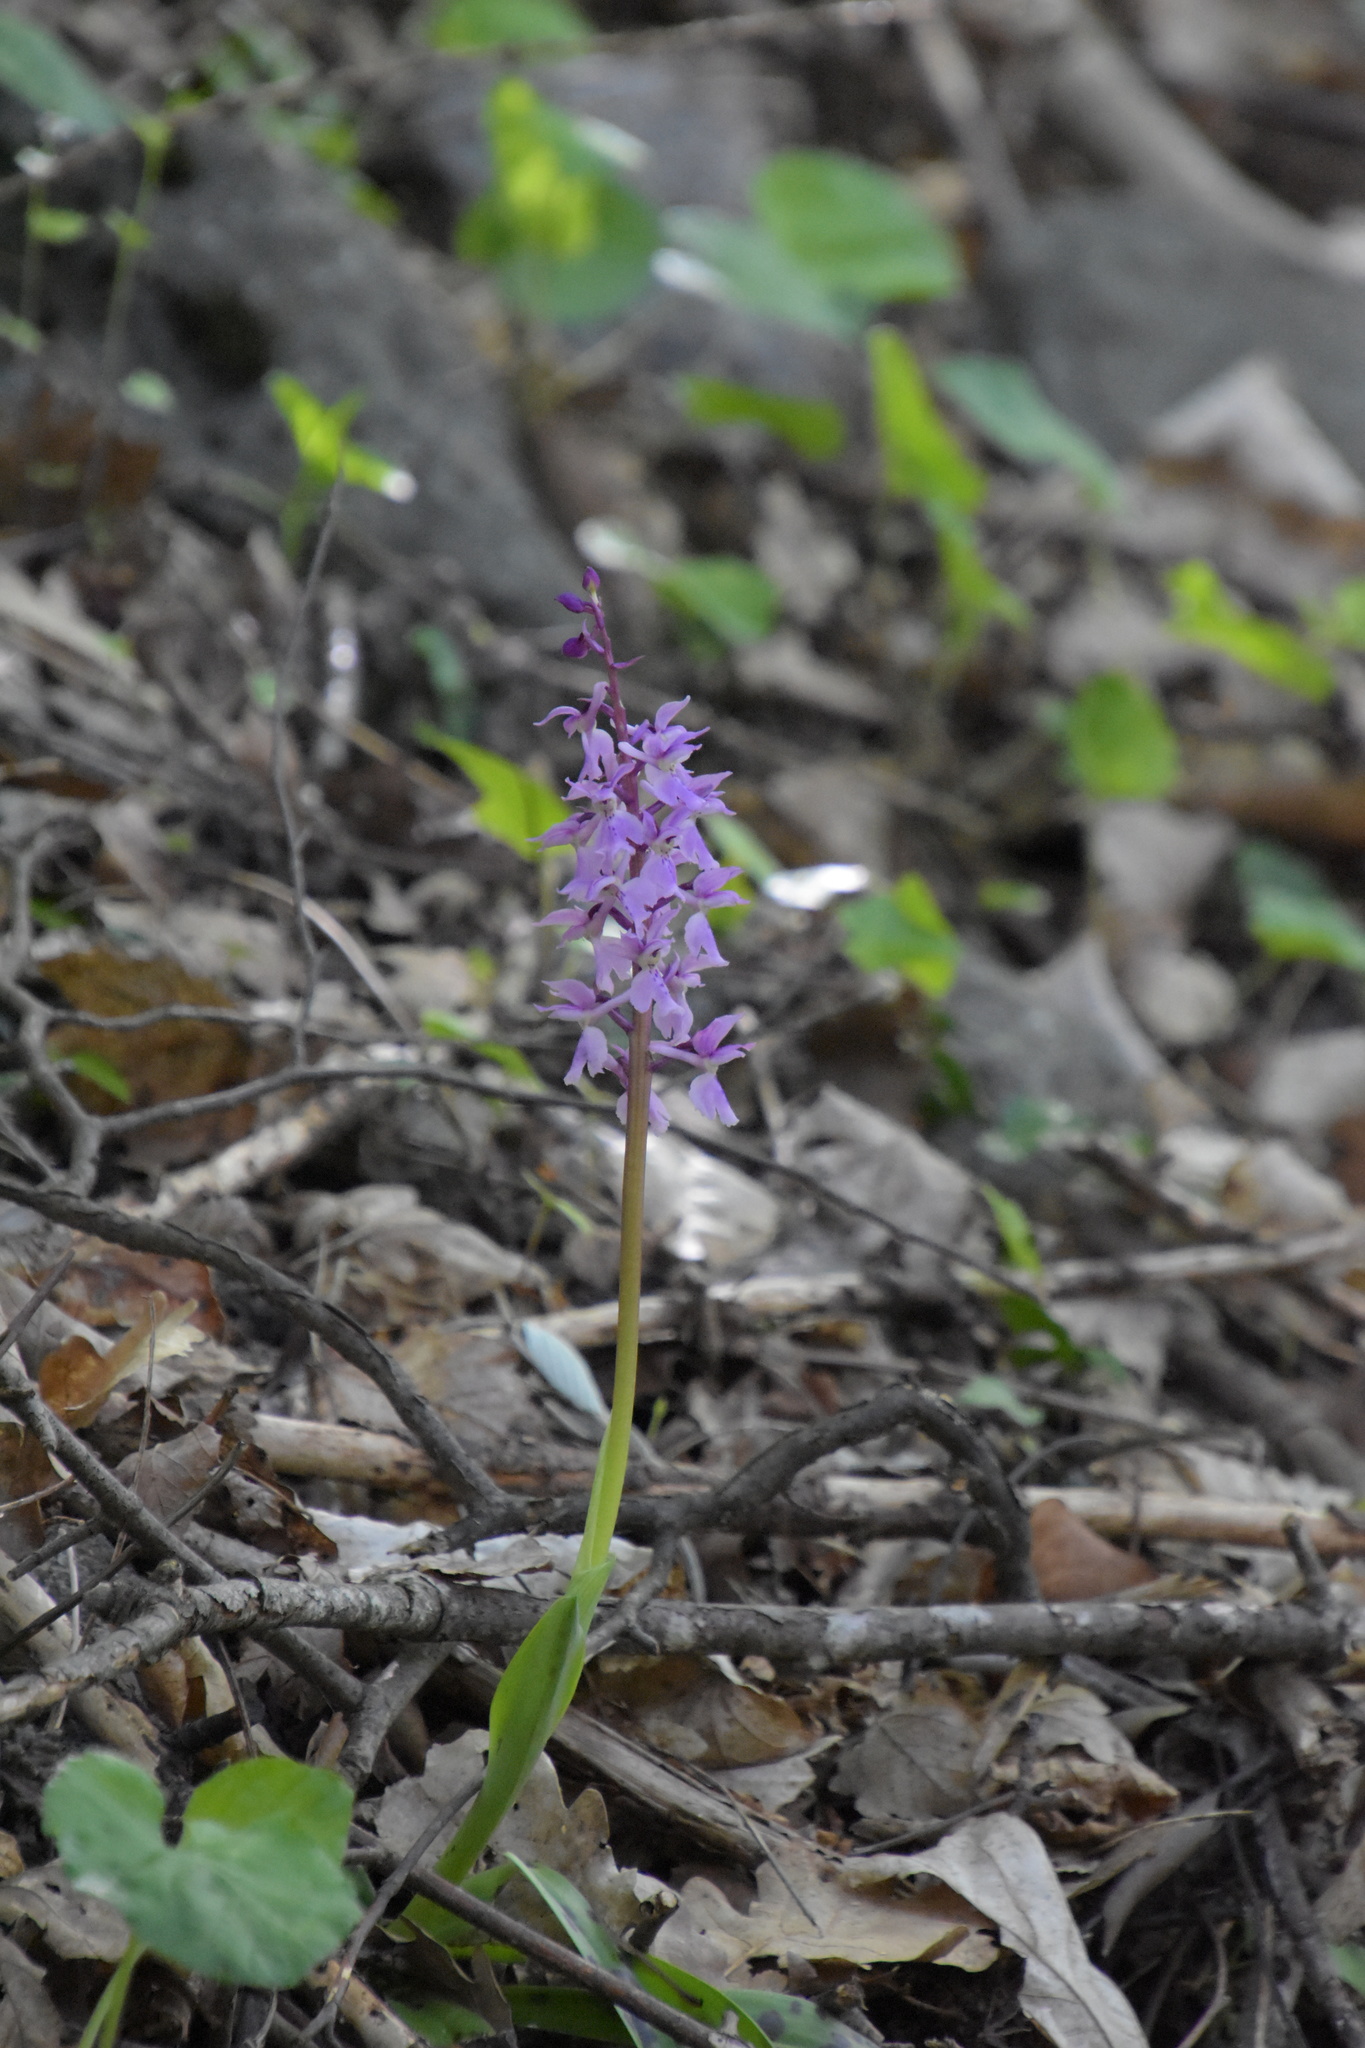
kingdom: Plantae
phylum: Tracheophyta
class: Liliopsida
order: Asparagales
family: Orchidaceae
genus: Orchis
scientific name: Orchis mascula
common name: Early-purple orchid
